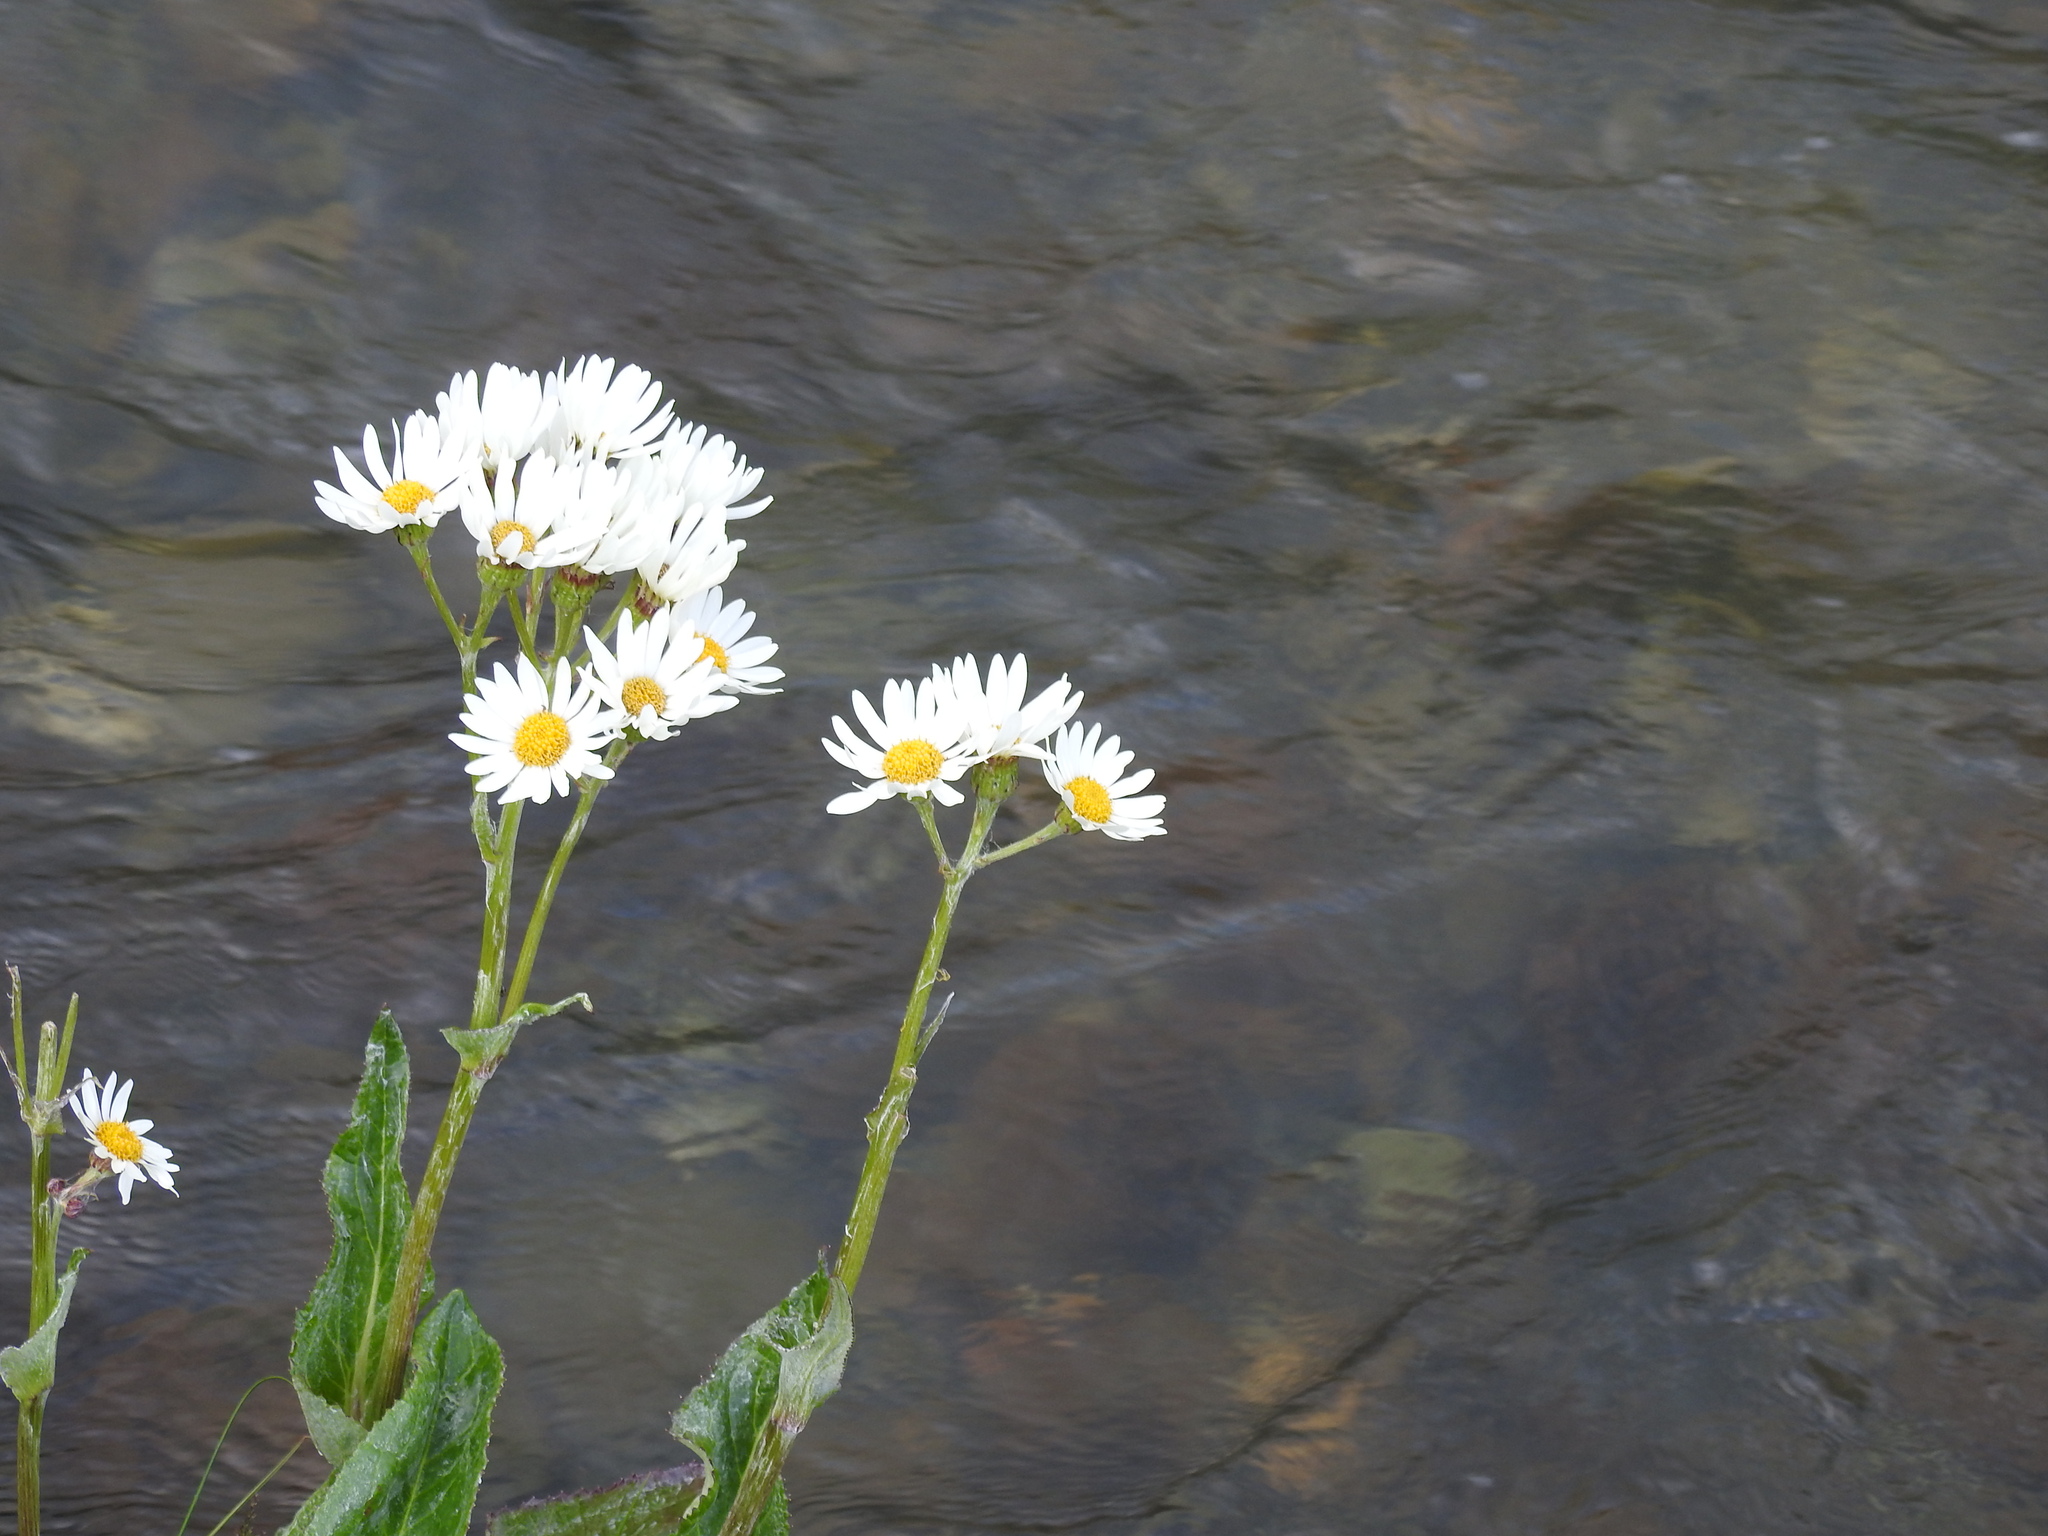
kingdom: Plantae
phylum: Tracheophyta
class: Magnoliopsida
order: Asterales
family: Asteraceae
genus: Senecio
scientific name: Senecio smithii
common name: Magellan ragwort
